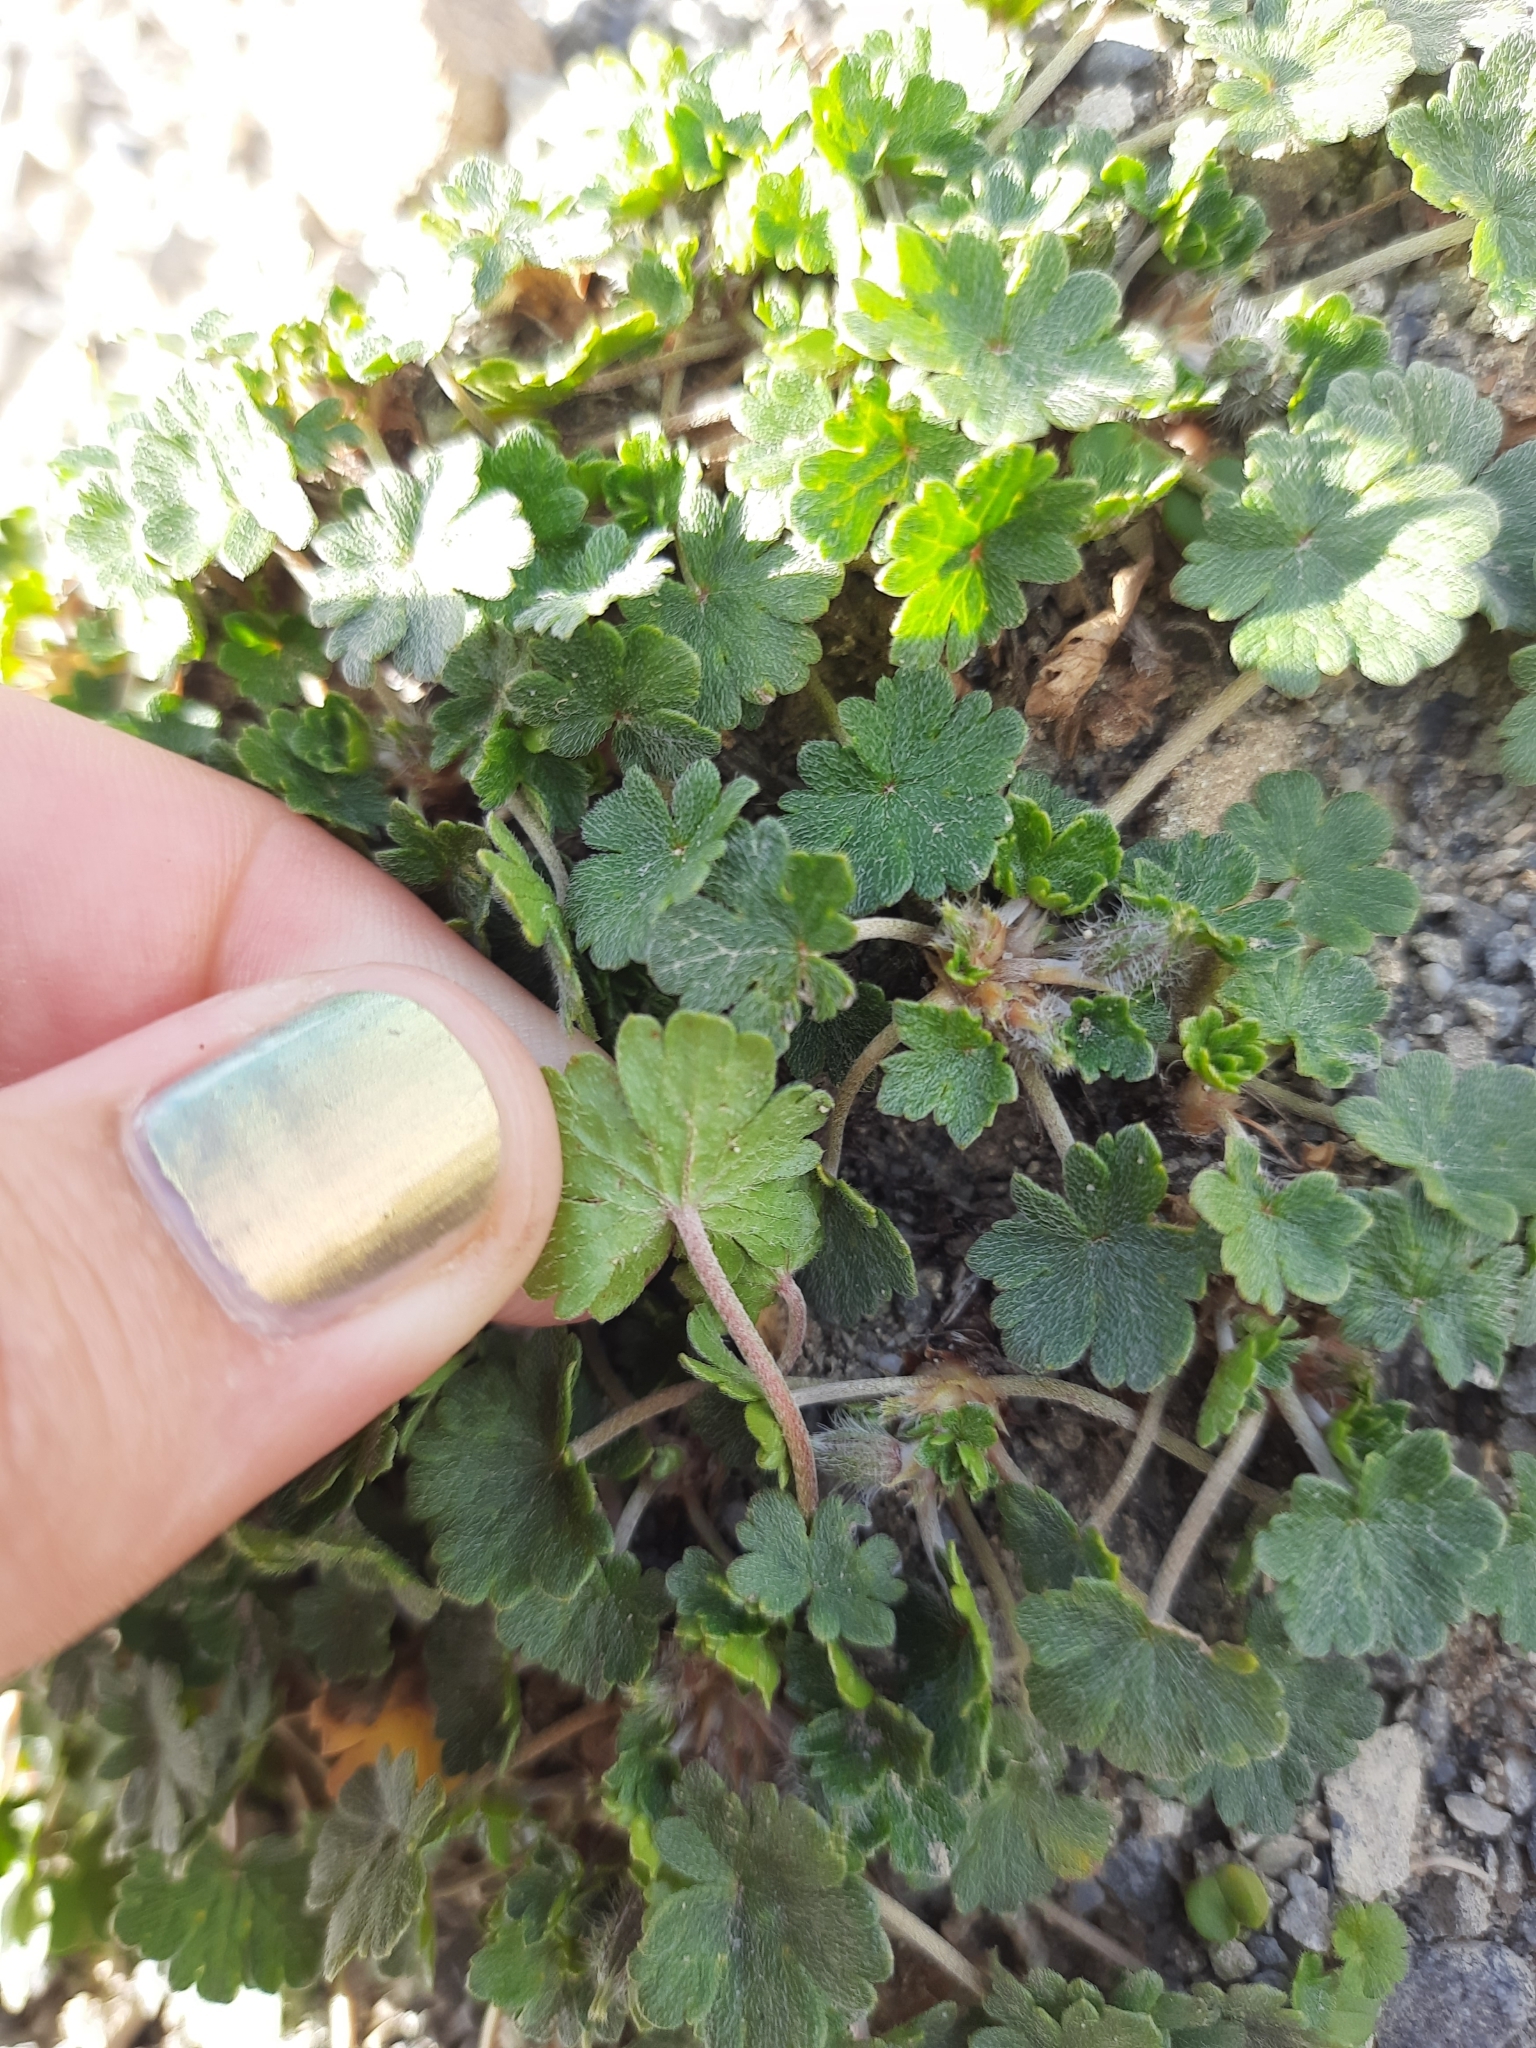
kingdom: Plantae
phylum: Tracheophyta
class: Magnoliopsida
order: Geraniales
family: Geraniaceae
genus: Geranium
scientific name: Geranium brevicaule
